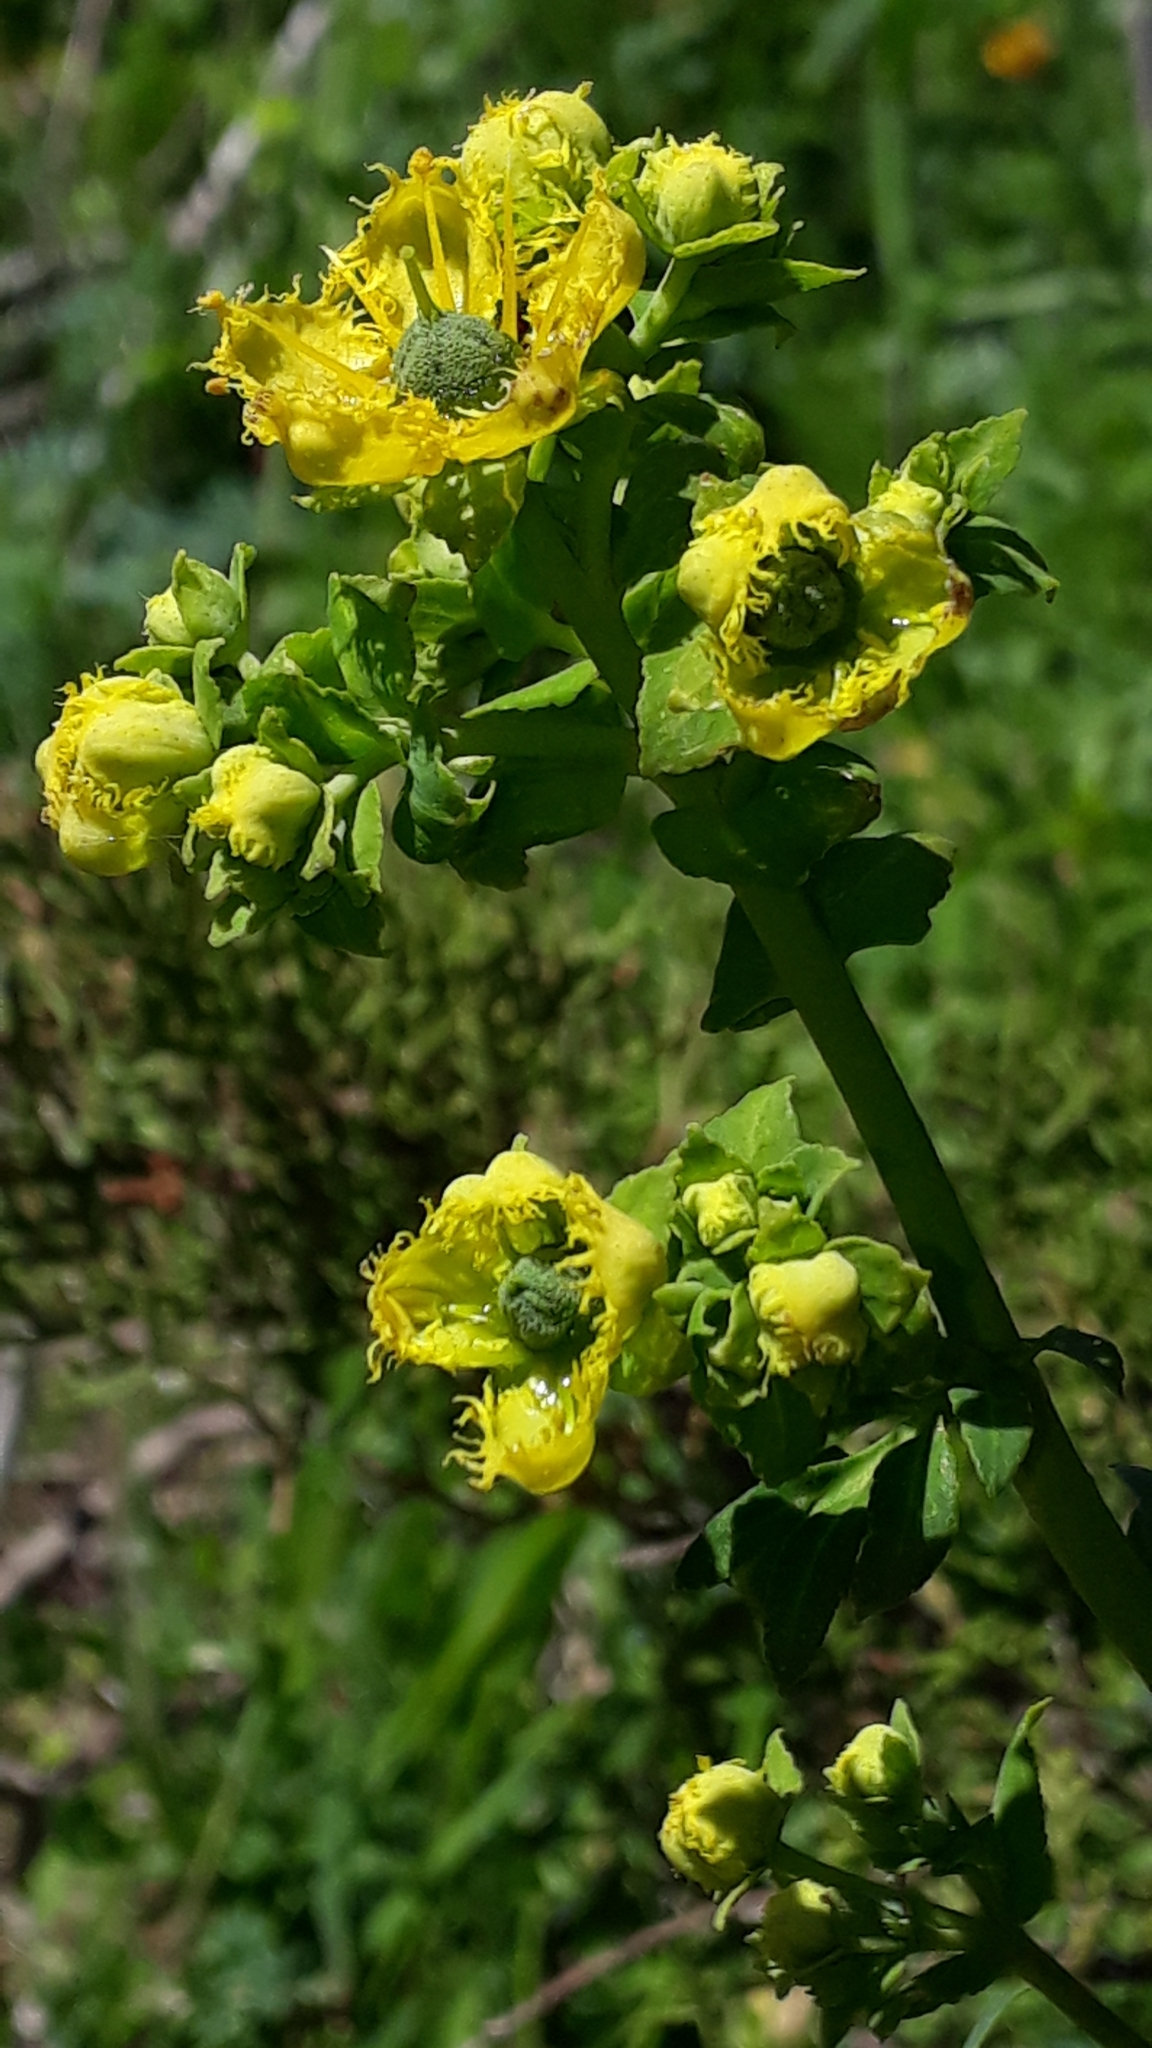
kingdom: Plantae
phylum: Tracheophyta
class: Magnoliopsida
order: Sapindales
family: Rutaceae
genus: Ruta
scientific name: Ruta chalepensis
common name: Fringed rue
